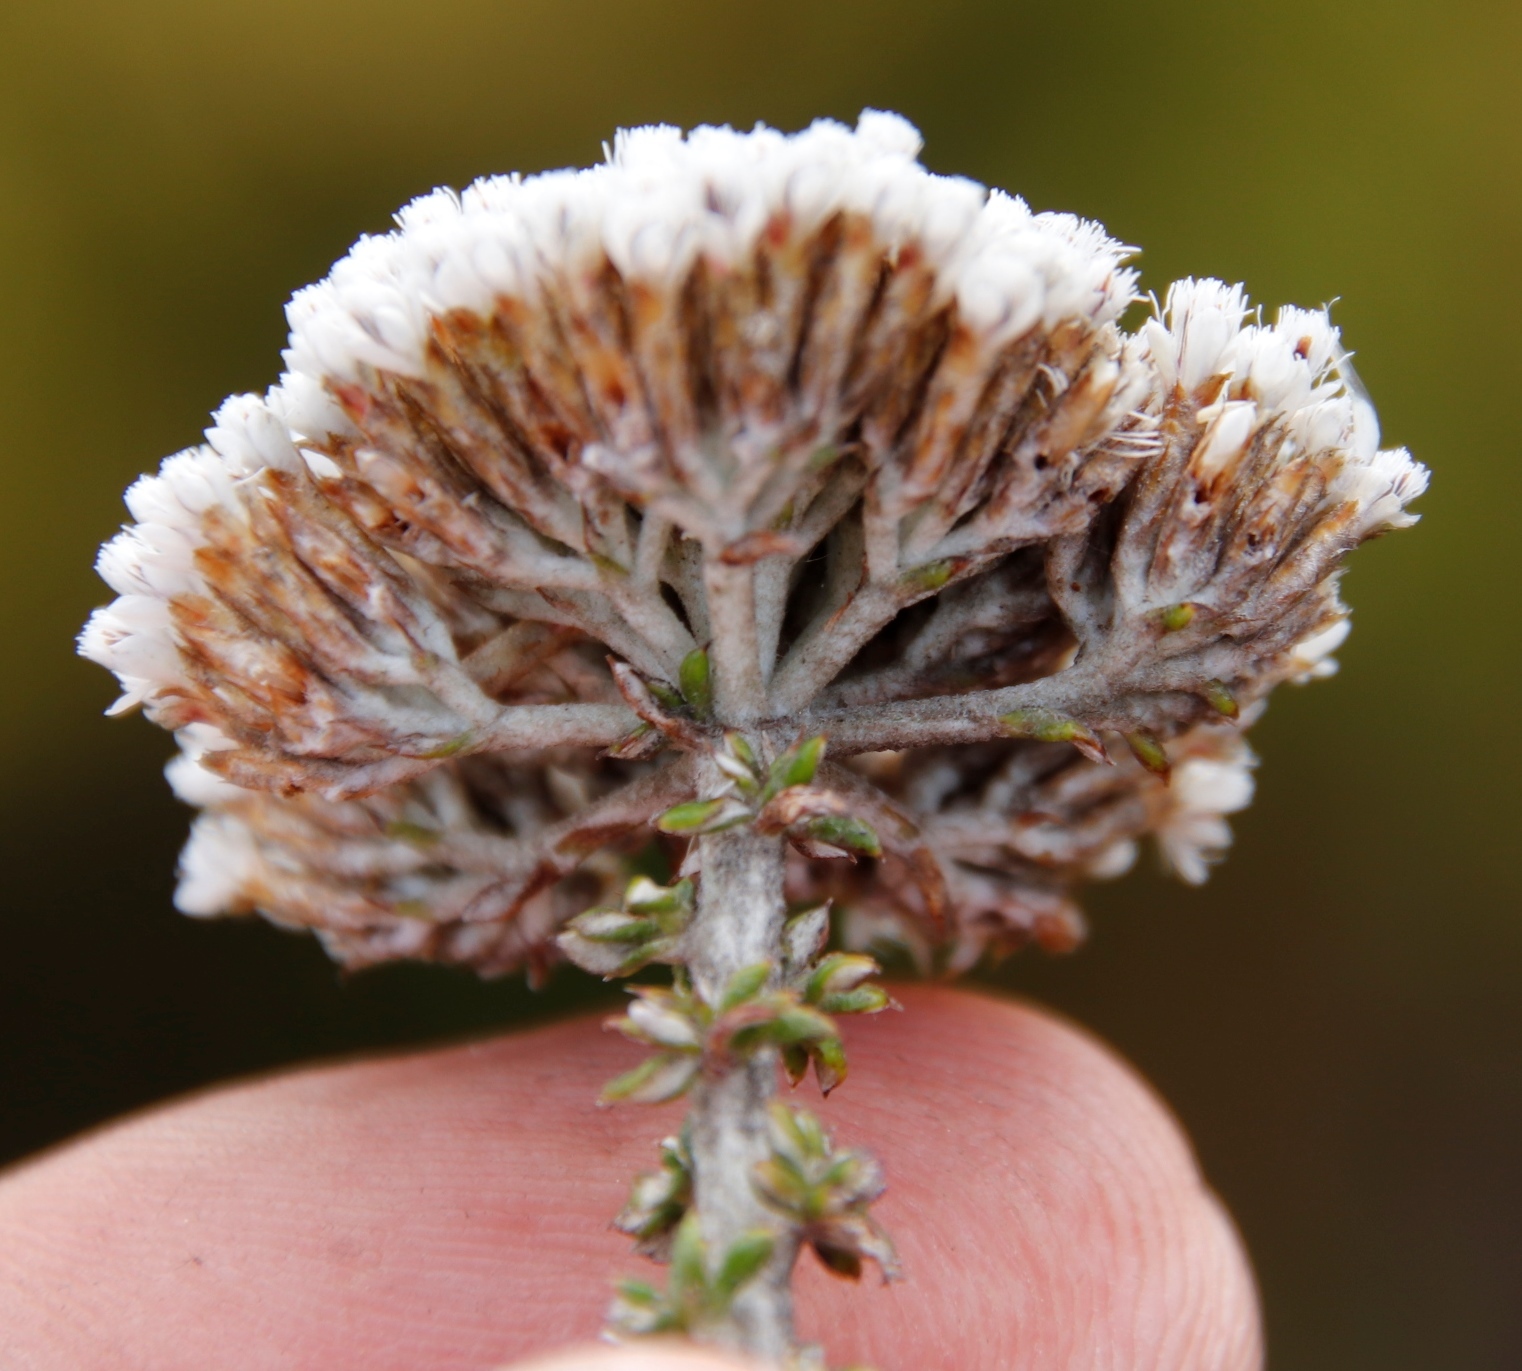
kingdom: Plantae
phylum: Tracheophyta
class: Magnoliopsida
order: Asterales
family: Asteraceae
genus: Metalasia
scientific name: Metalasia densa
